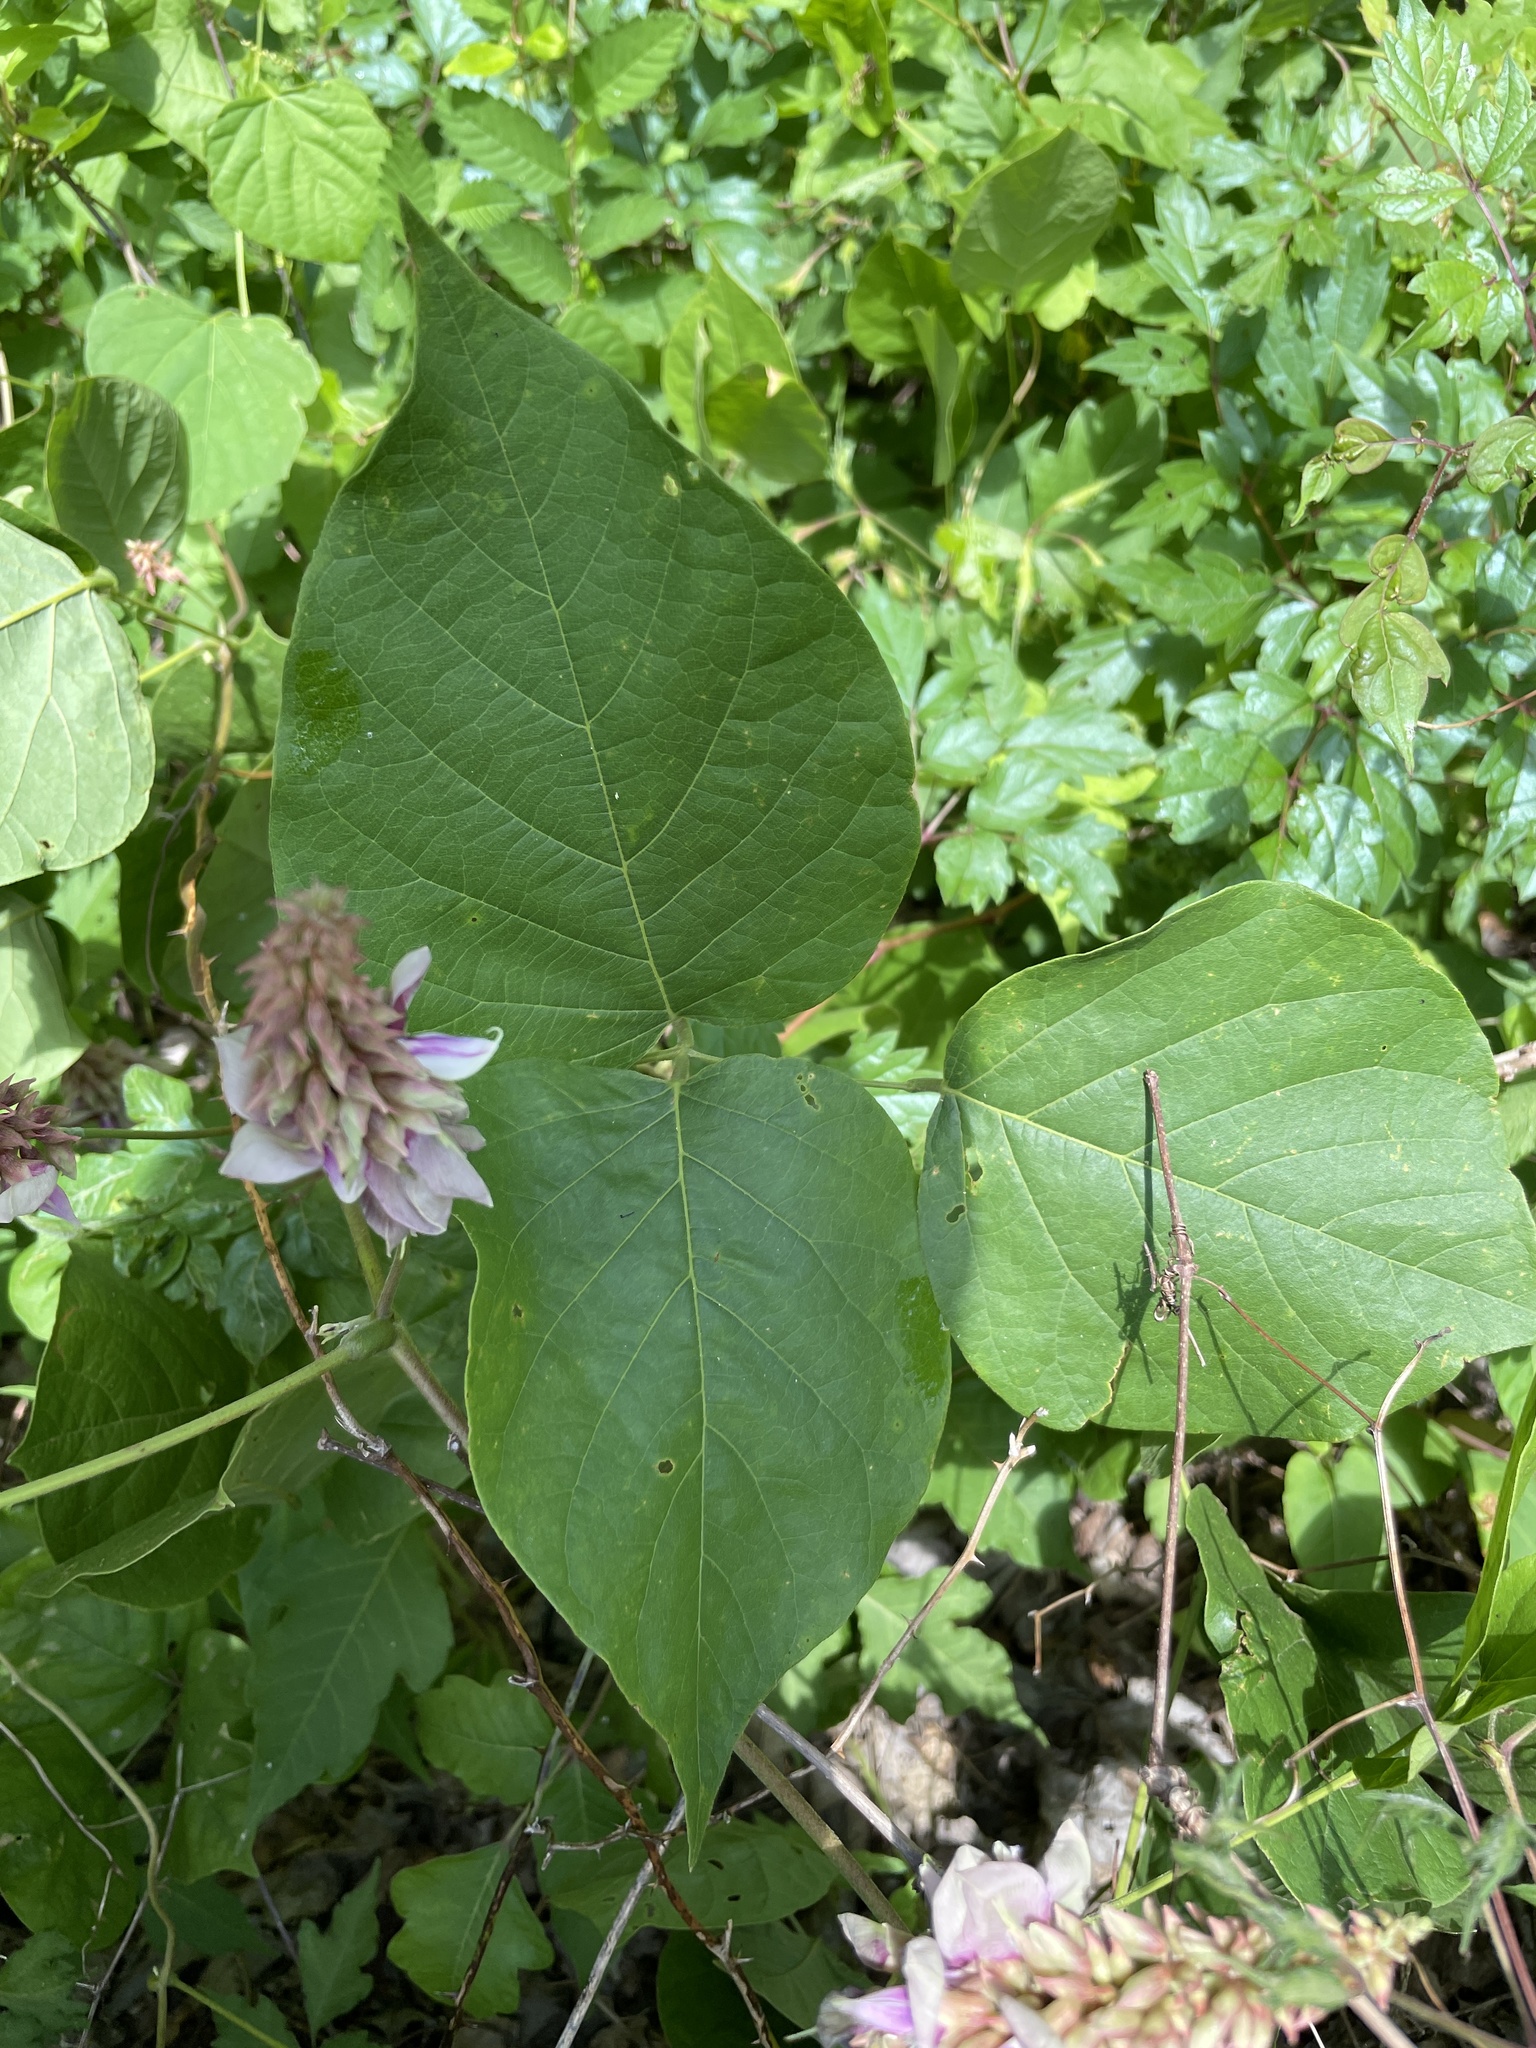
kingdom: Plantae
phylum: Tracheophyta
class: Magnoliopsida
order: Fabales
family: Fabaceae
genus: Lackeya
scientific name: Lackeya multiflora
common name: Boykin's clusterpea
